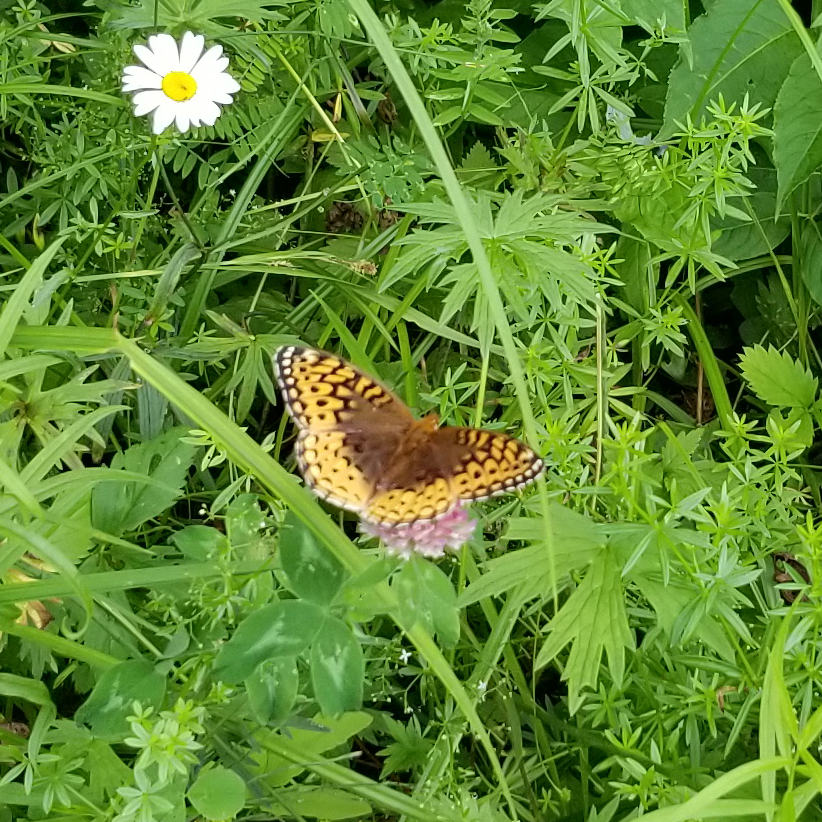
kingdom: Animalia
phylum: Arthropoda
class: Insecta
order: Lepidoptera
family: Nymphalidae
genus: Speyeria
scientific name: Speyeria cybele
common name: Great spangled fritillary
